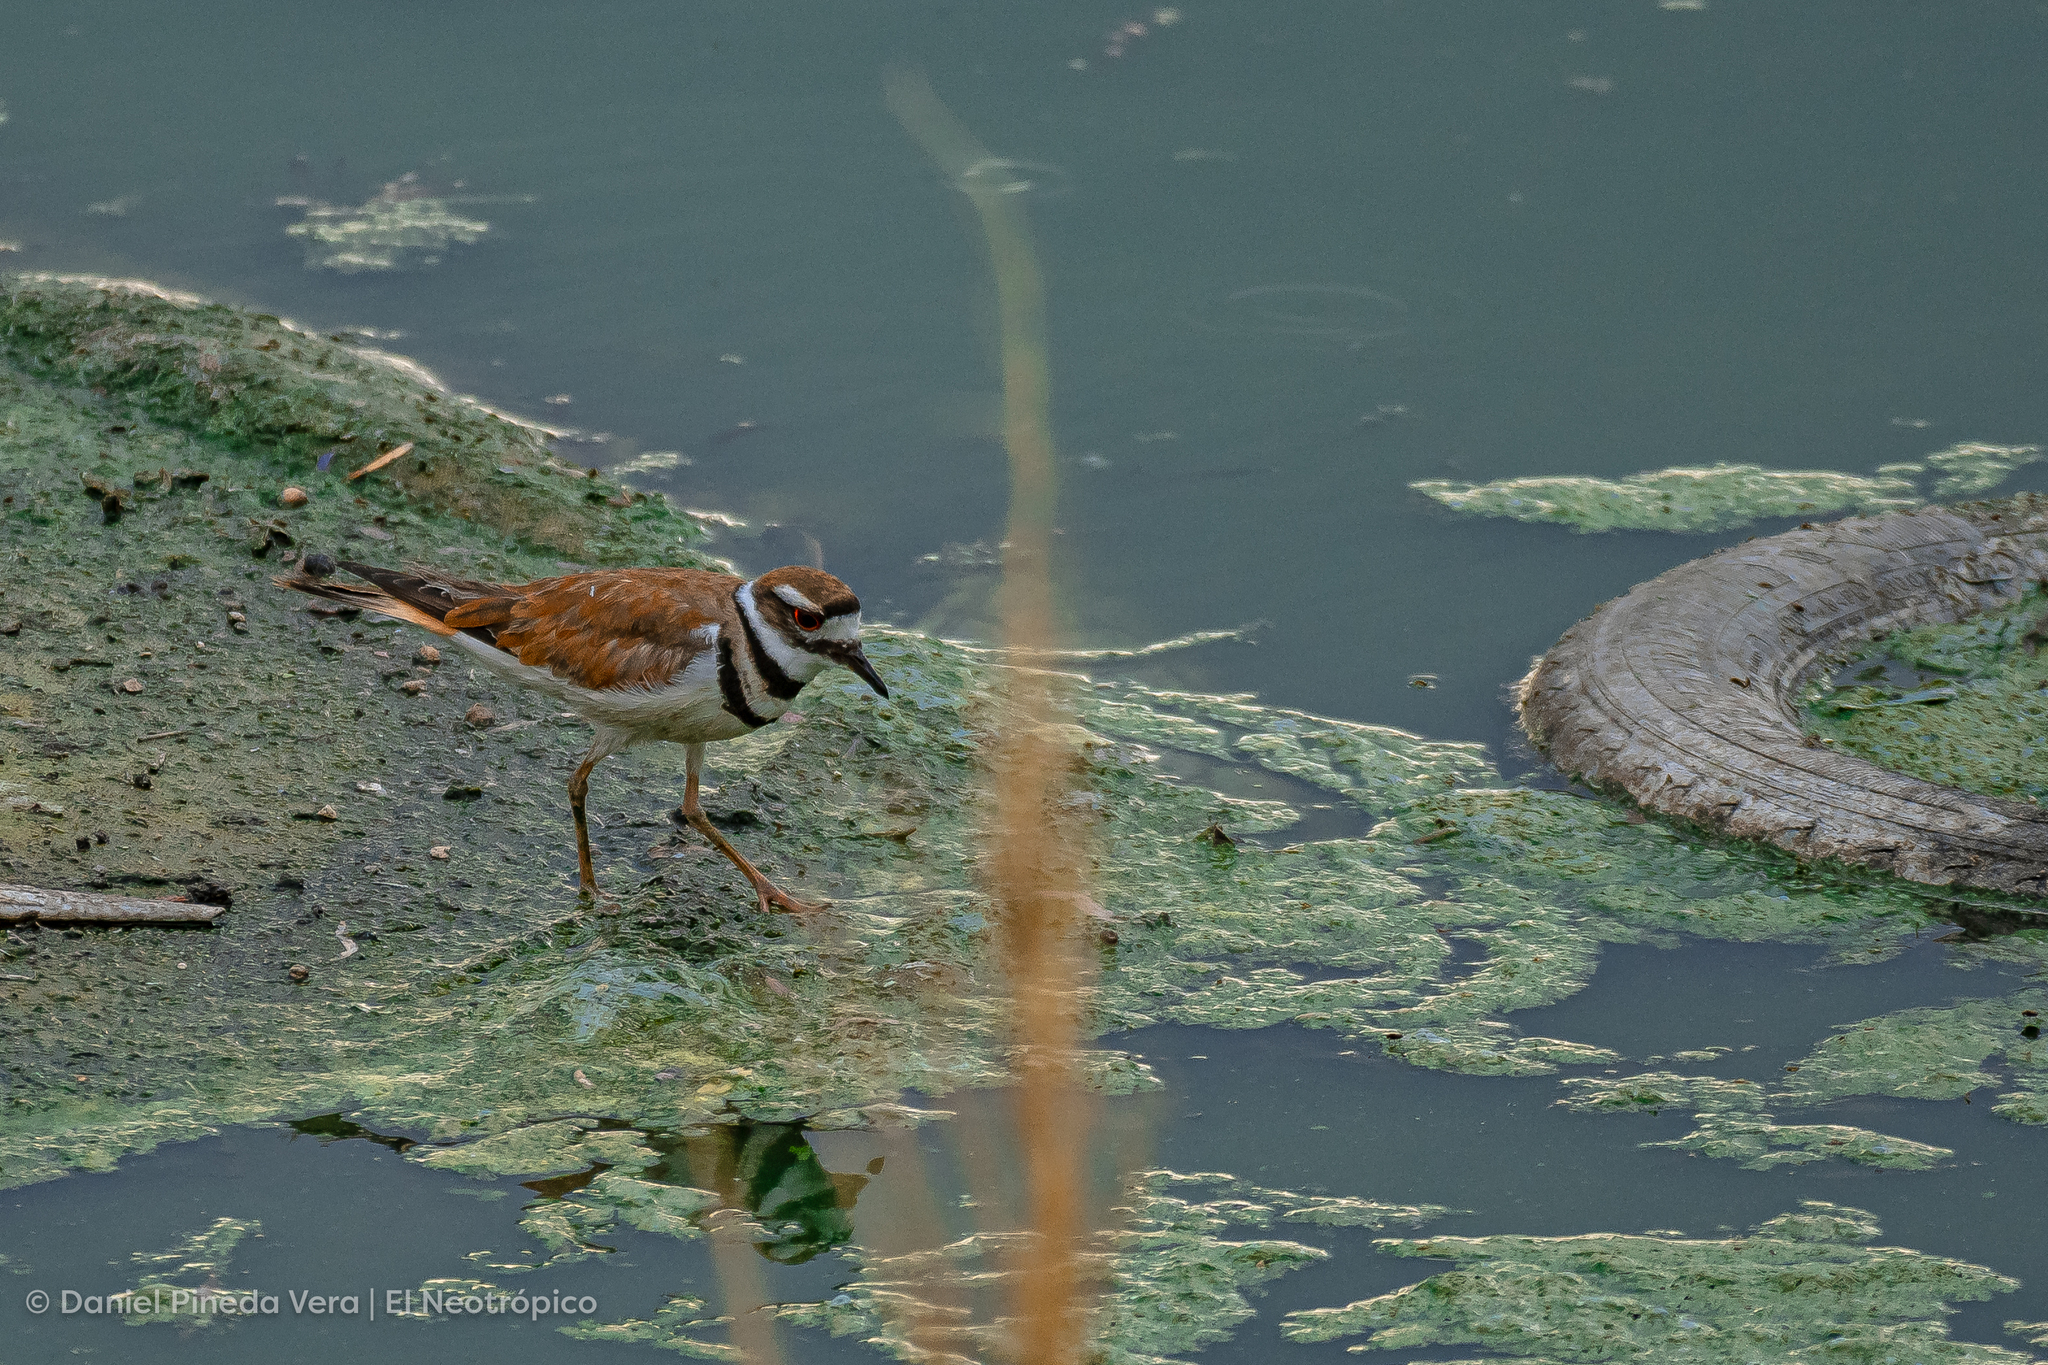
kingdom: Animalia
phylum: Chordata
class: Aves
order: Charadriiformes
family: Charadriidae
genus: Charadrius
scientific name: Charadrius vociferus
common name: Killdeer
